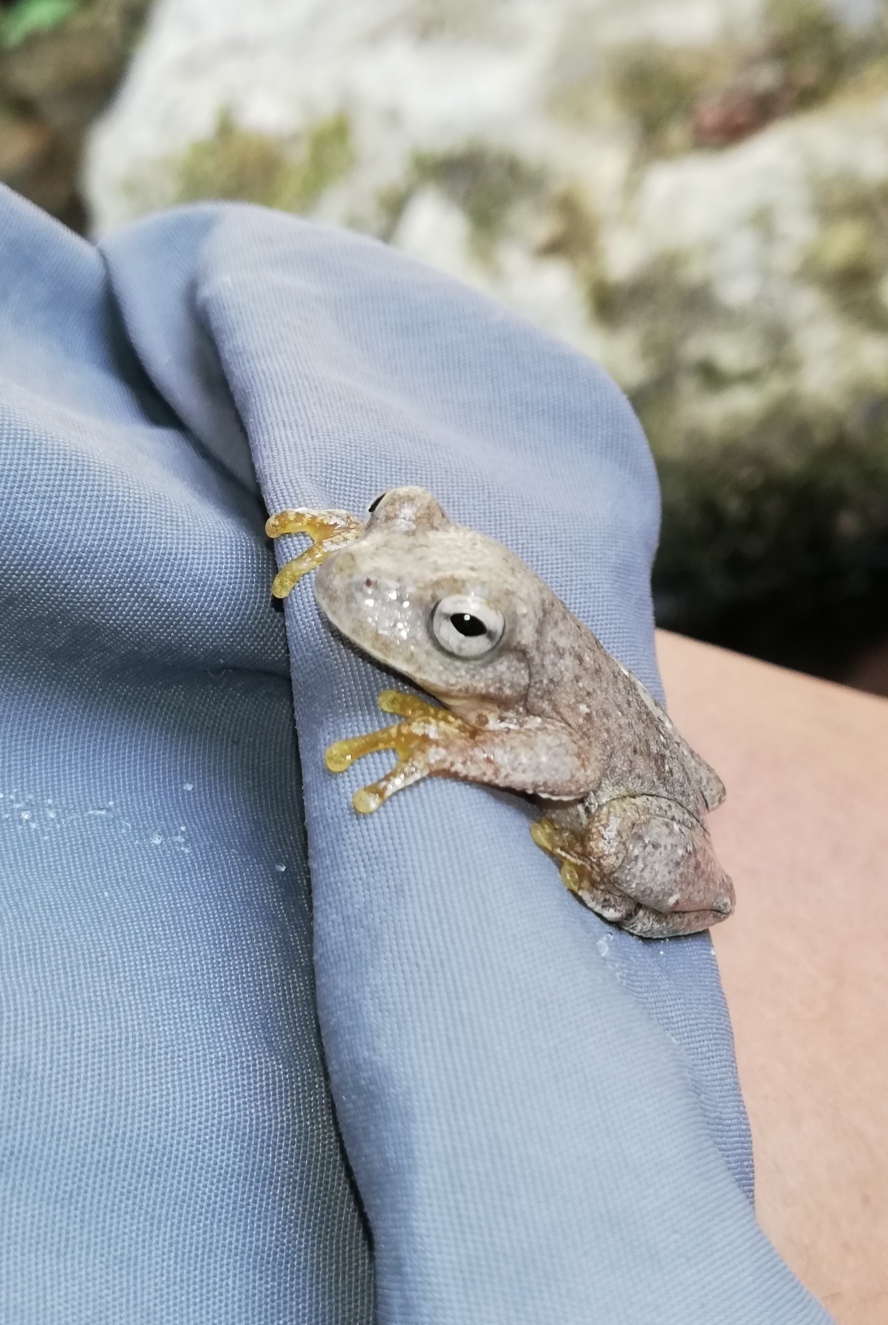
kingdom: Animalia
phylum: Chordata
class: Amphibia
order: Anura
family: Hylidae
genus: Rheohyla
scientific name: Rheohyla miotympanum
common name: Small-eard hyla
